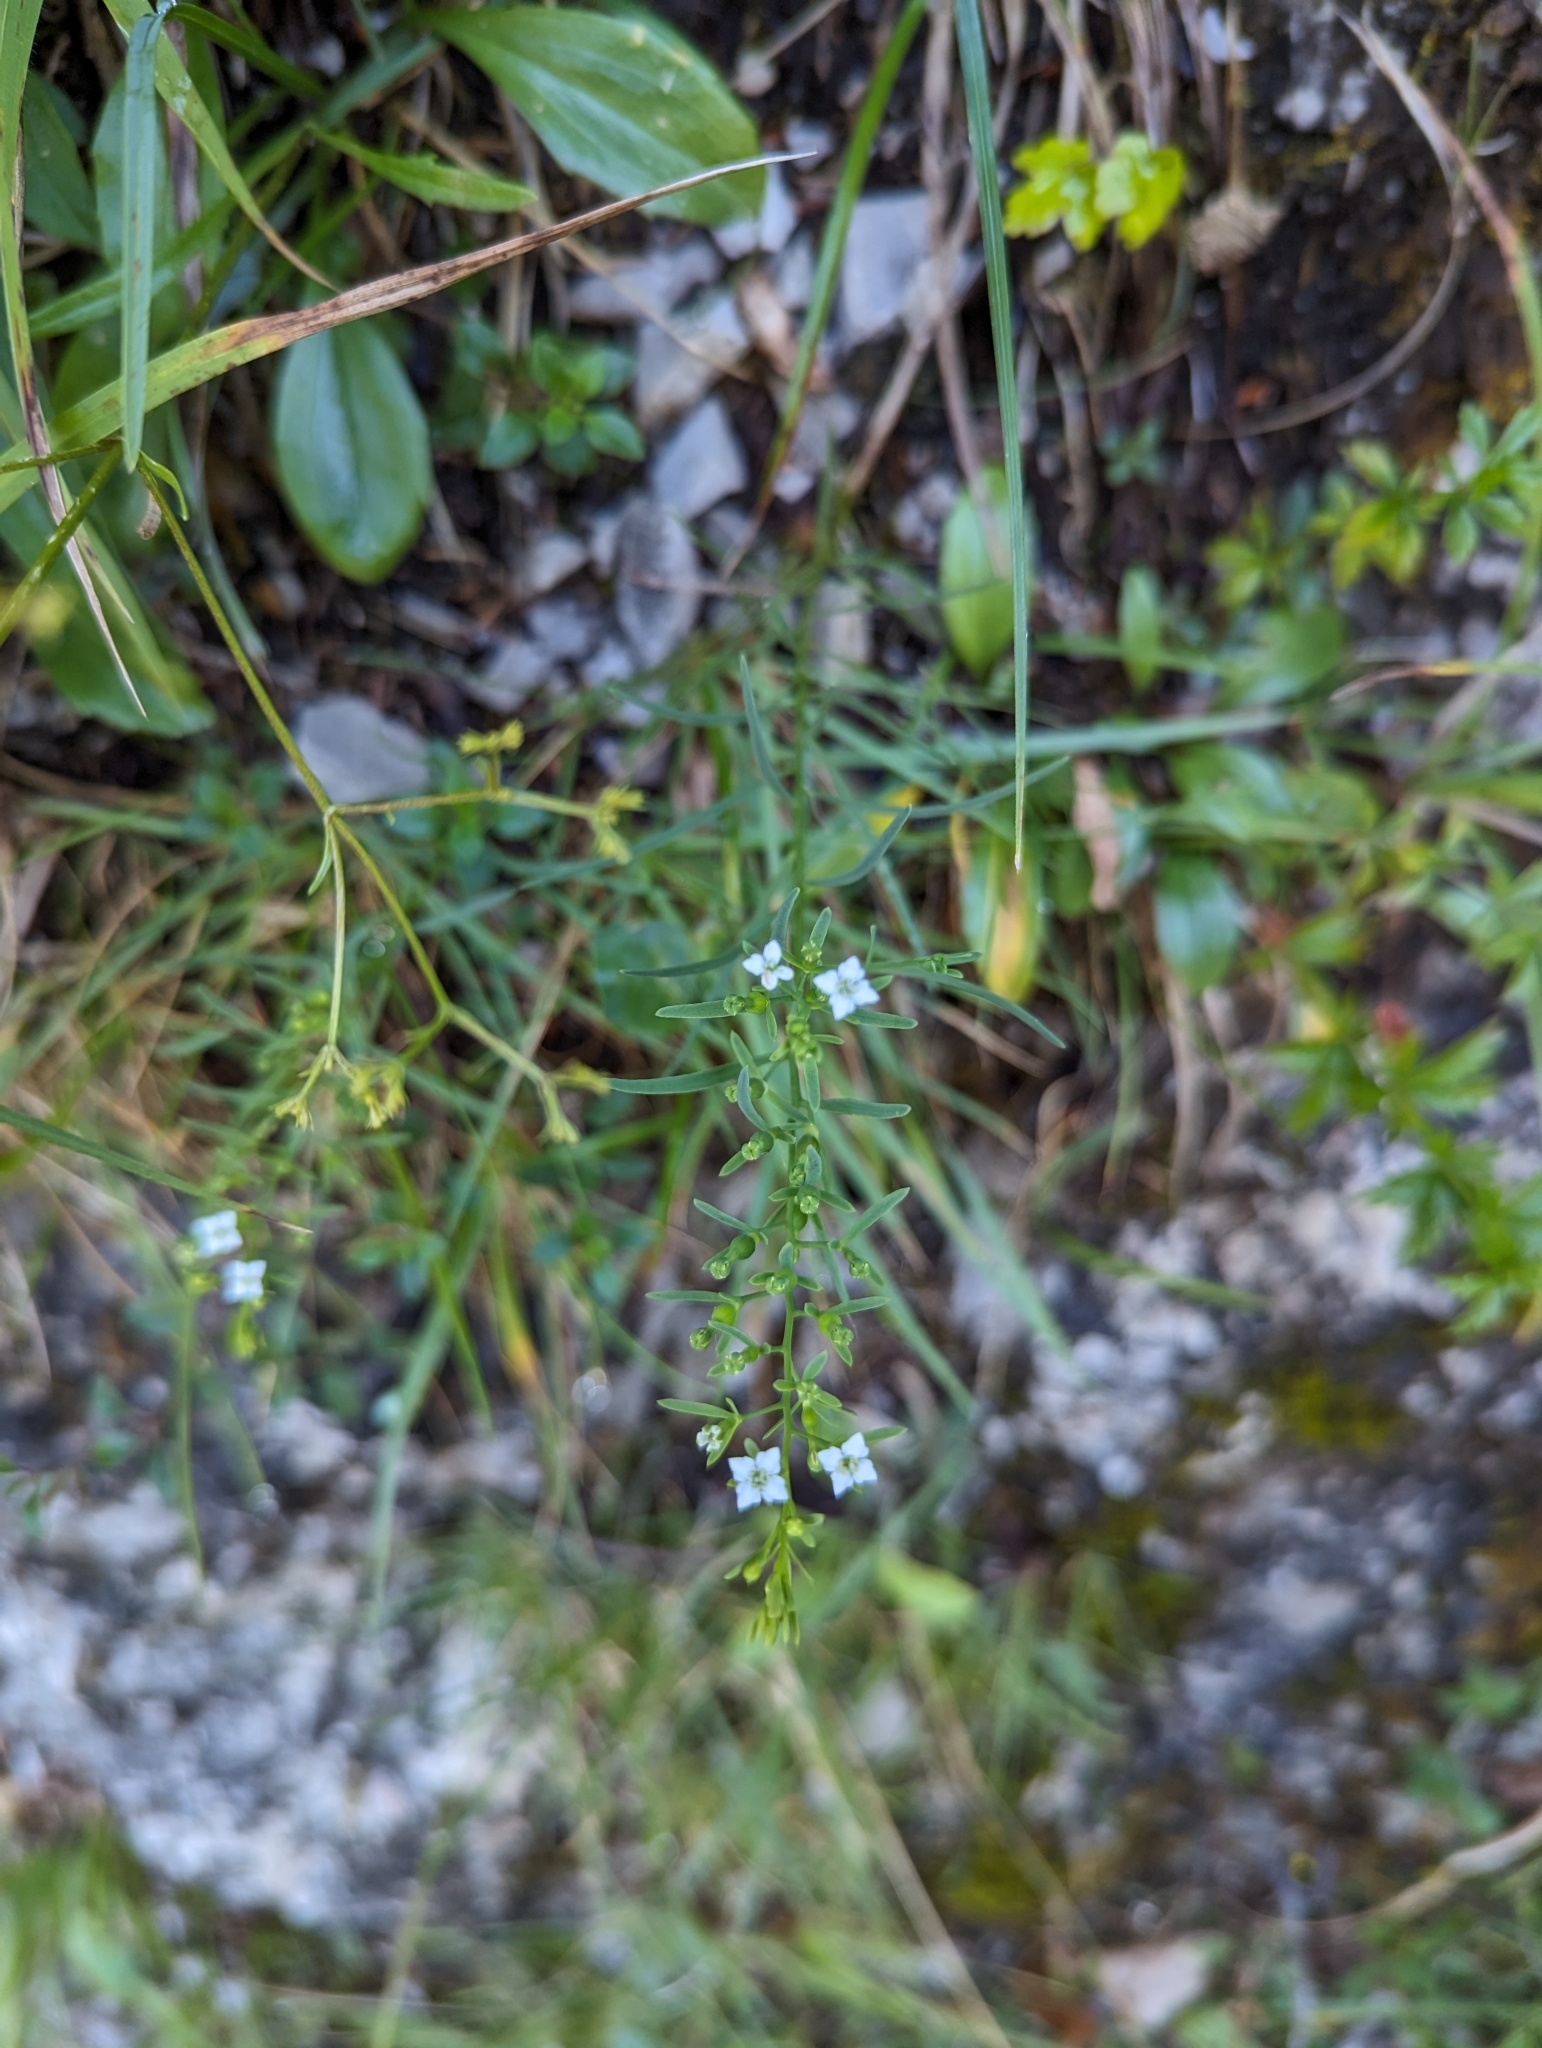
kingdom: Plantae
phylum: Tracheophyta
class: Magnoliopsida
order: Santalales
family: Thesiaceae
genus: Thesium
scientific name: Thesium alpinum
